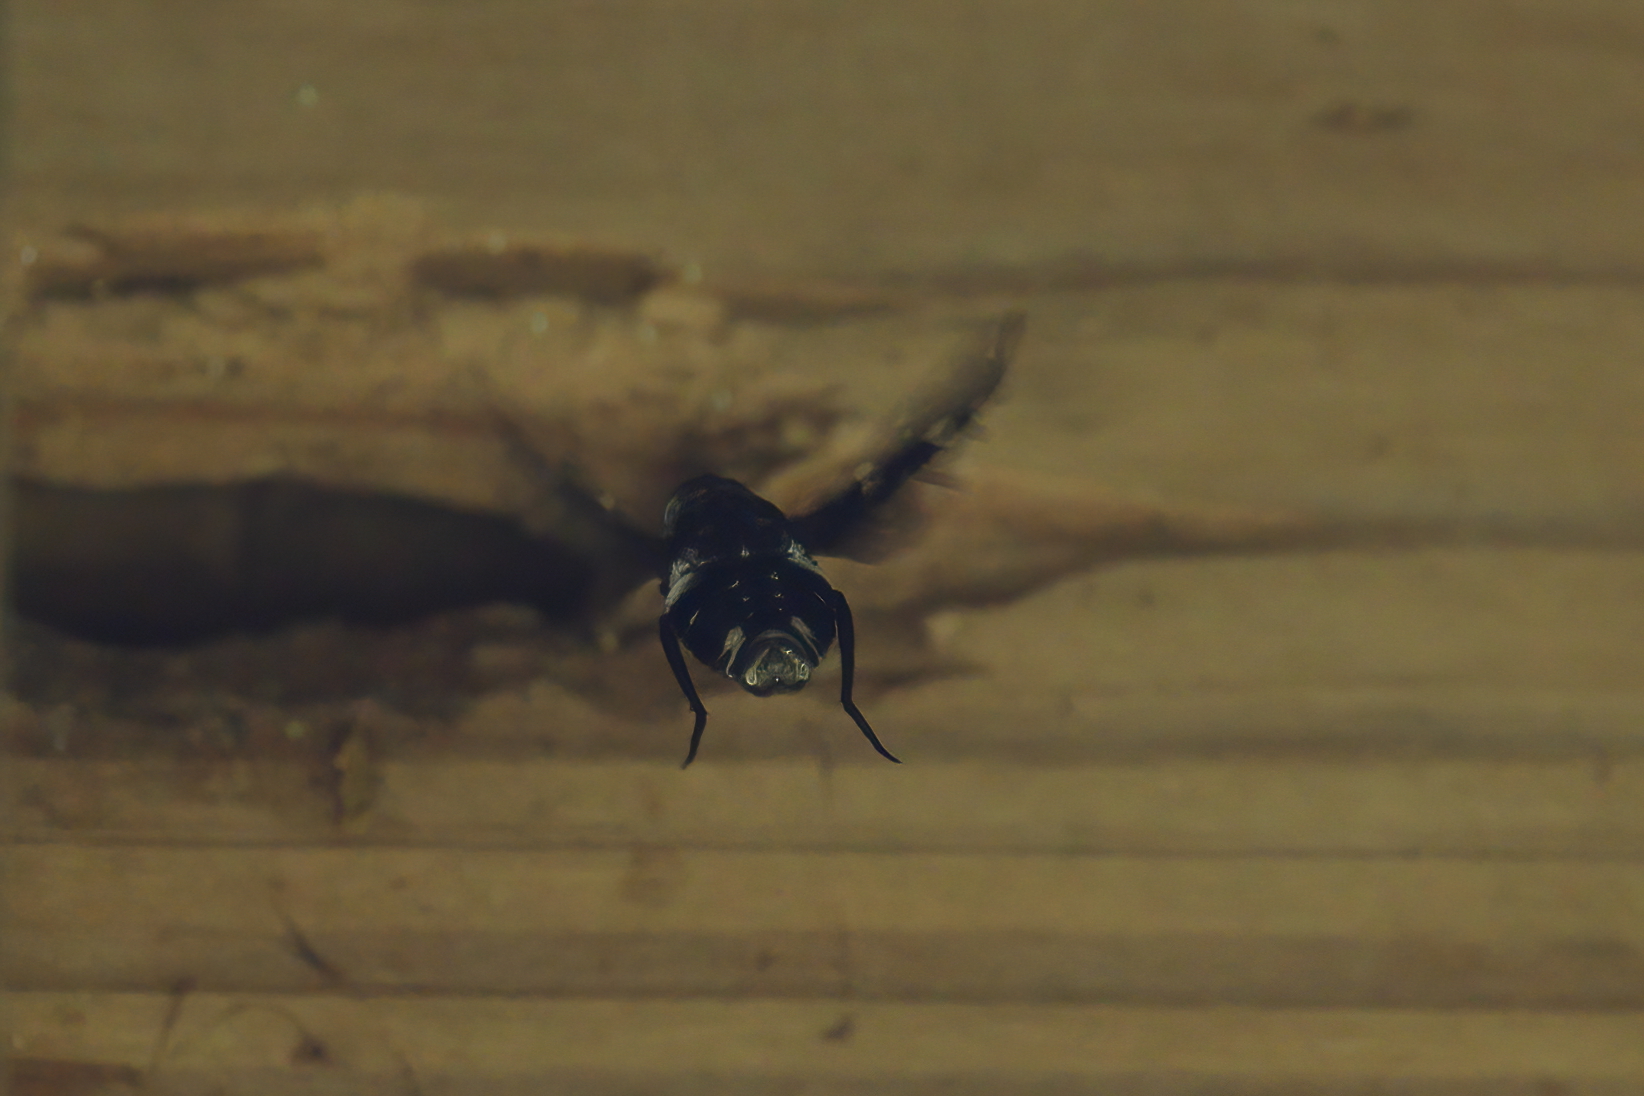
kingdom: Animalia
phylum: Arthropoda
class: Insecta
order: Diptera
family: Bombyliidae
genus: Xenox
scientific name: Xenox tigrinus
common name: Tiger bee fly
